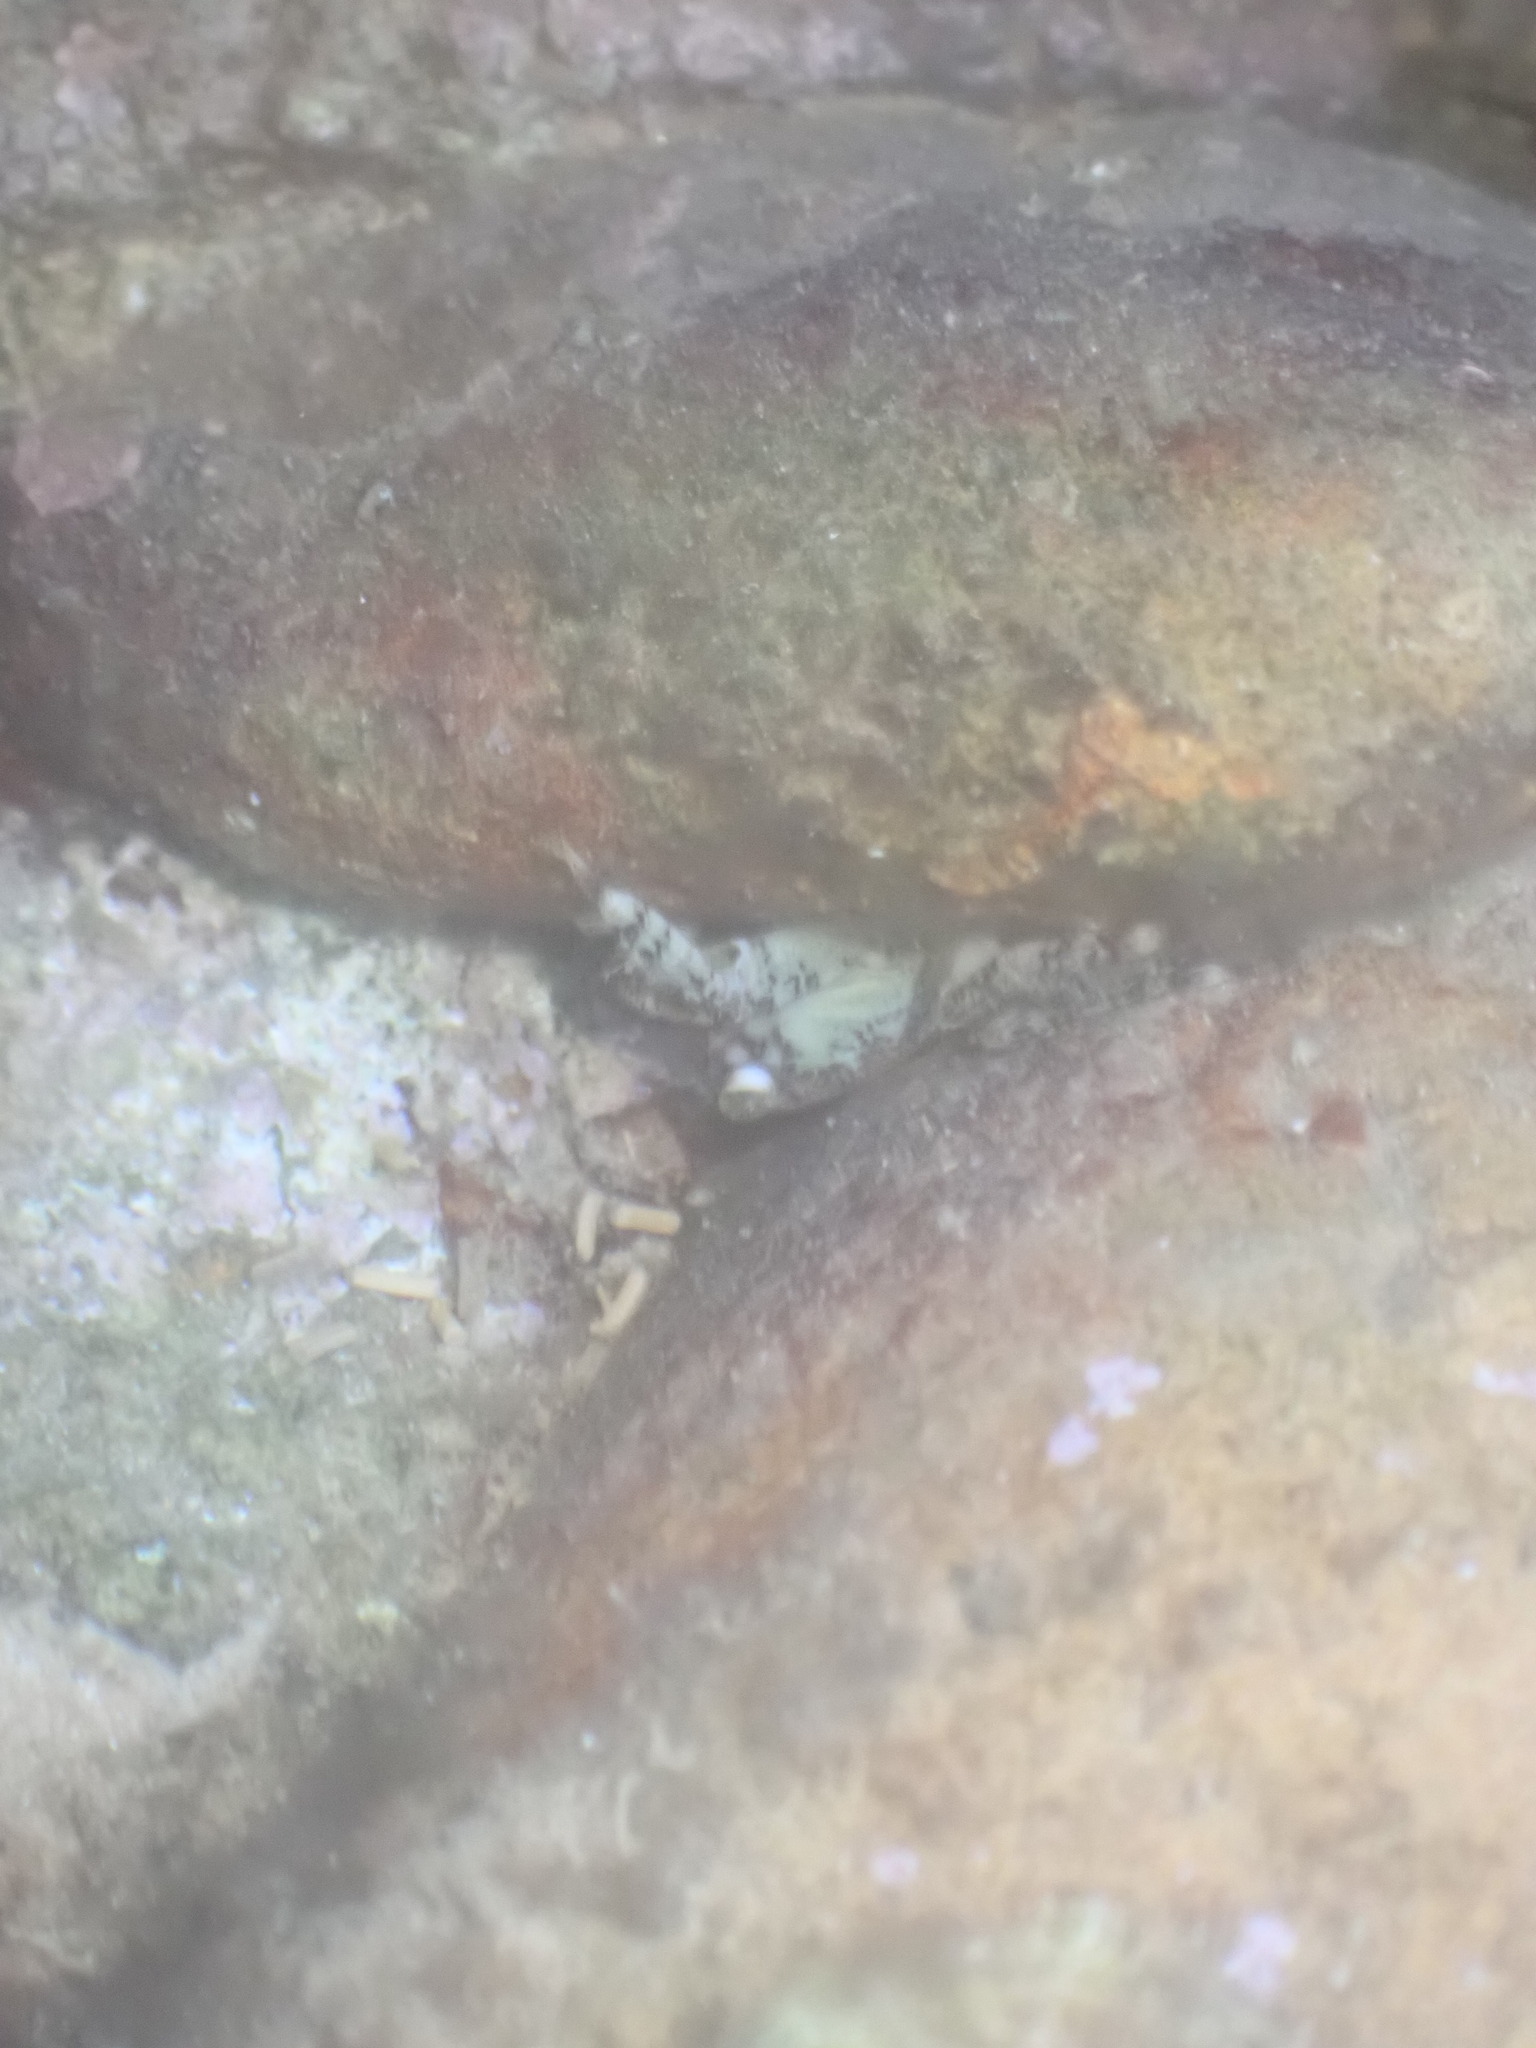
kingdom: Animalia
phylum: Arthropoda
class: Malacostraca
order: Decapoda
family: Grapsidae
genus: Pachygrapsus
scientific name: Pachygrapsus marmoratus
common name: Marbled rock crab
